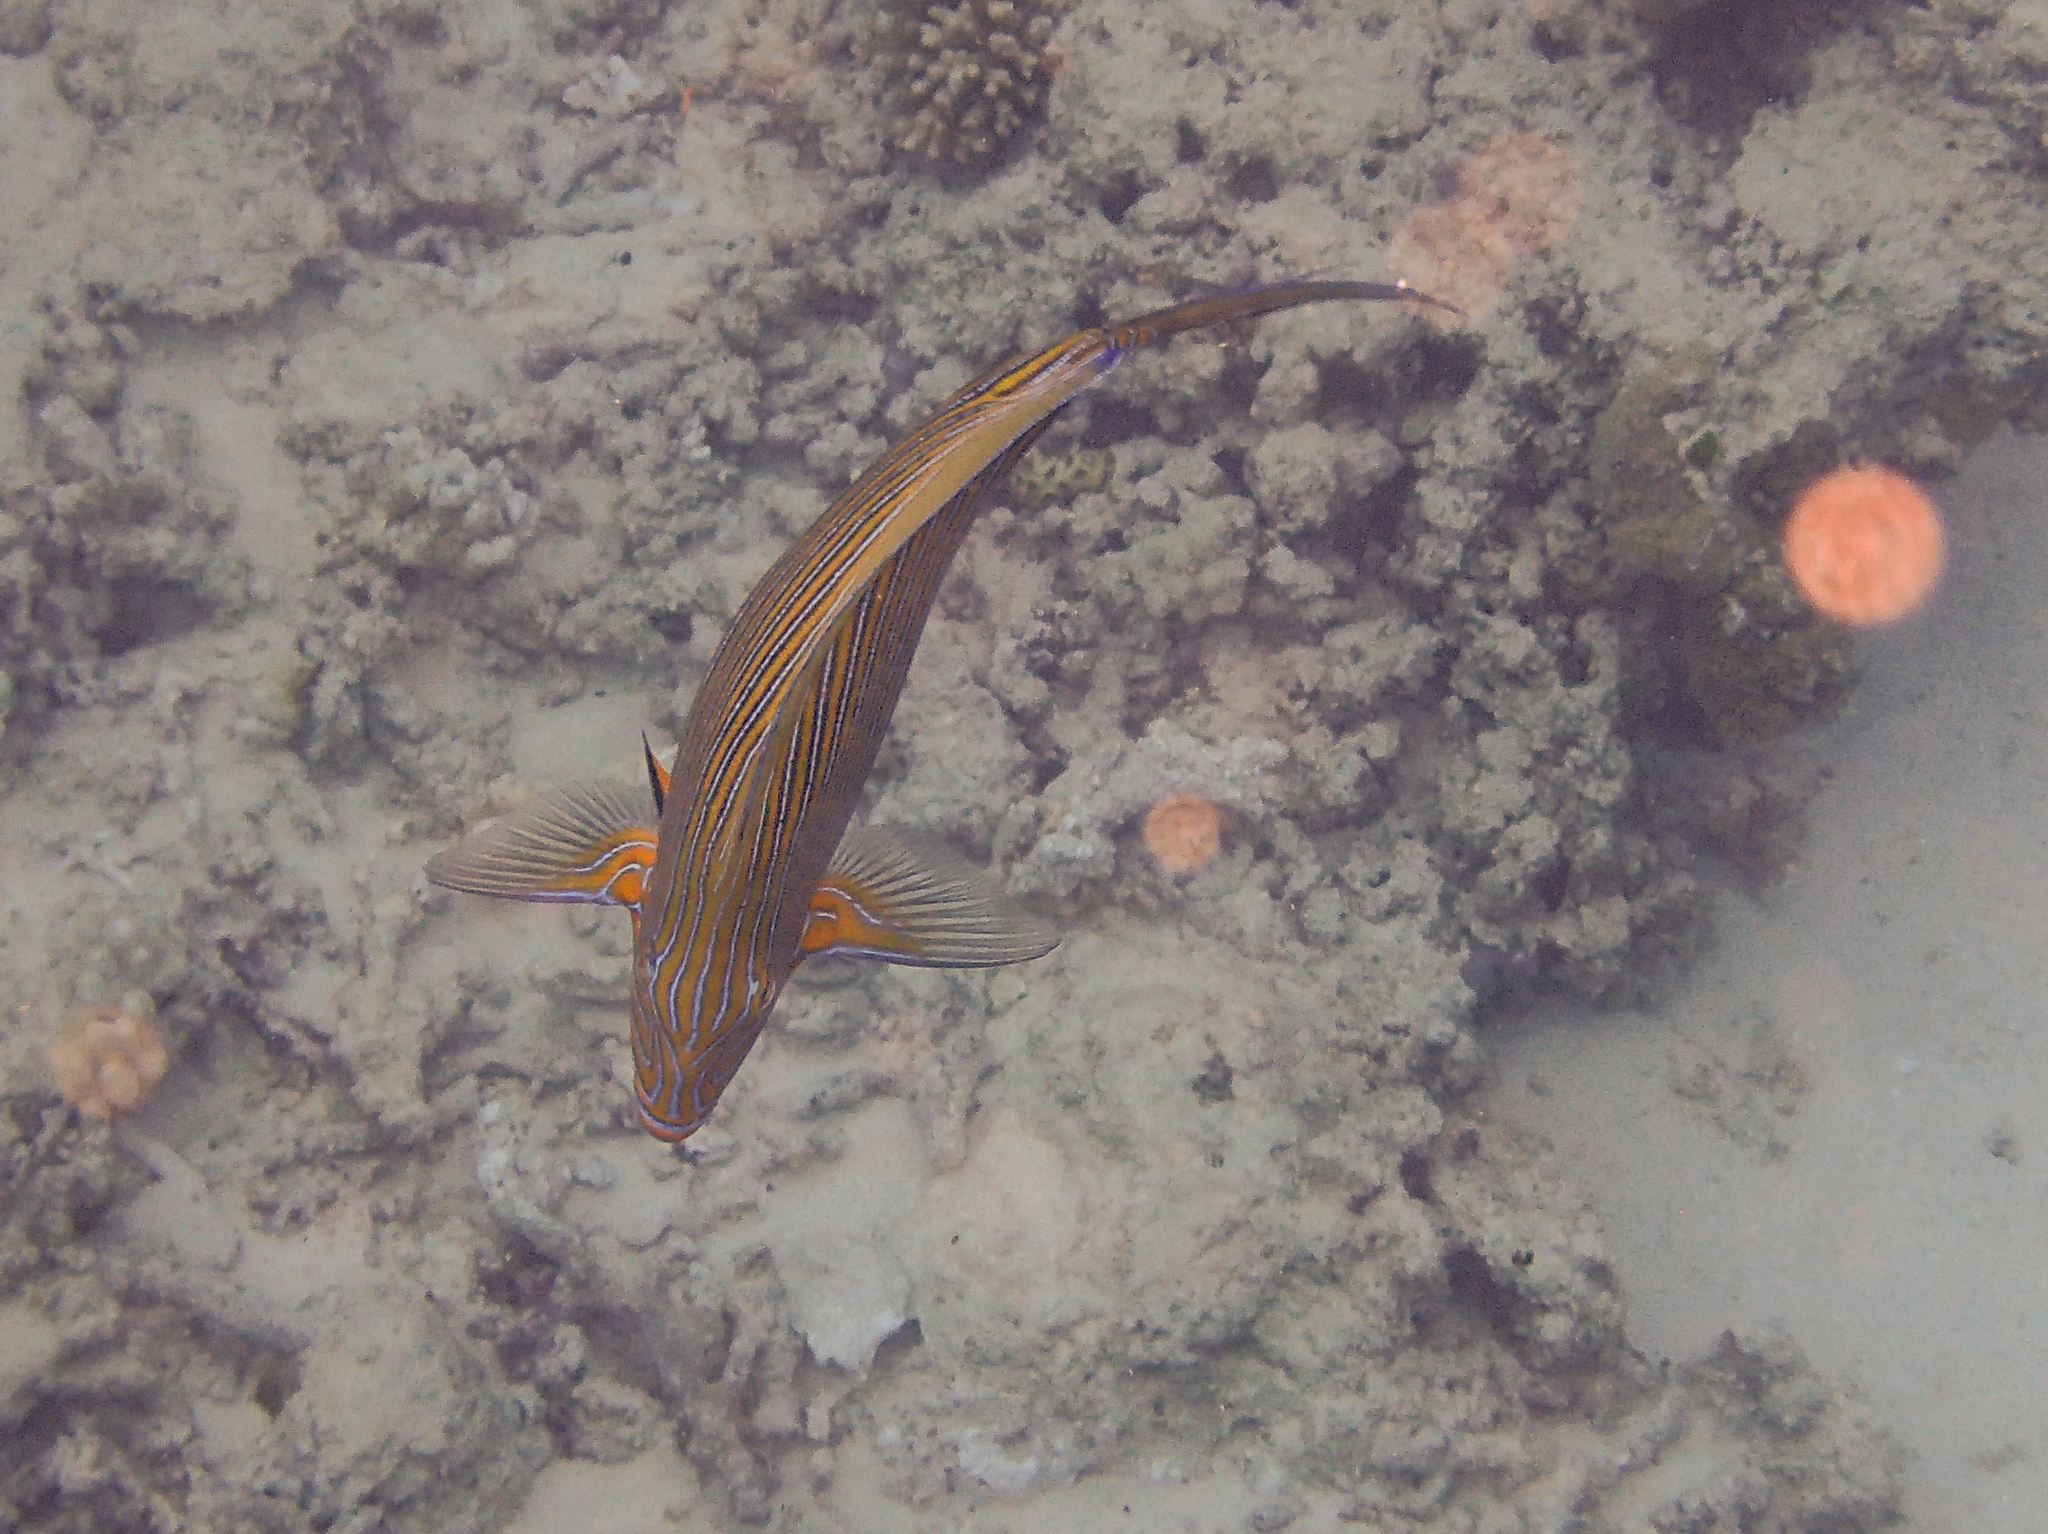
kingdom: Animalia
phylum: Chordata
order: Perciformes
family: Acanthuridae
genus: Acanthurus
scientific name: Acanthurus lineatus
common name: Striped surgeonfish
